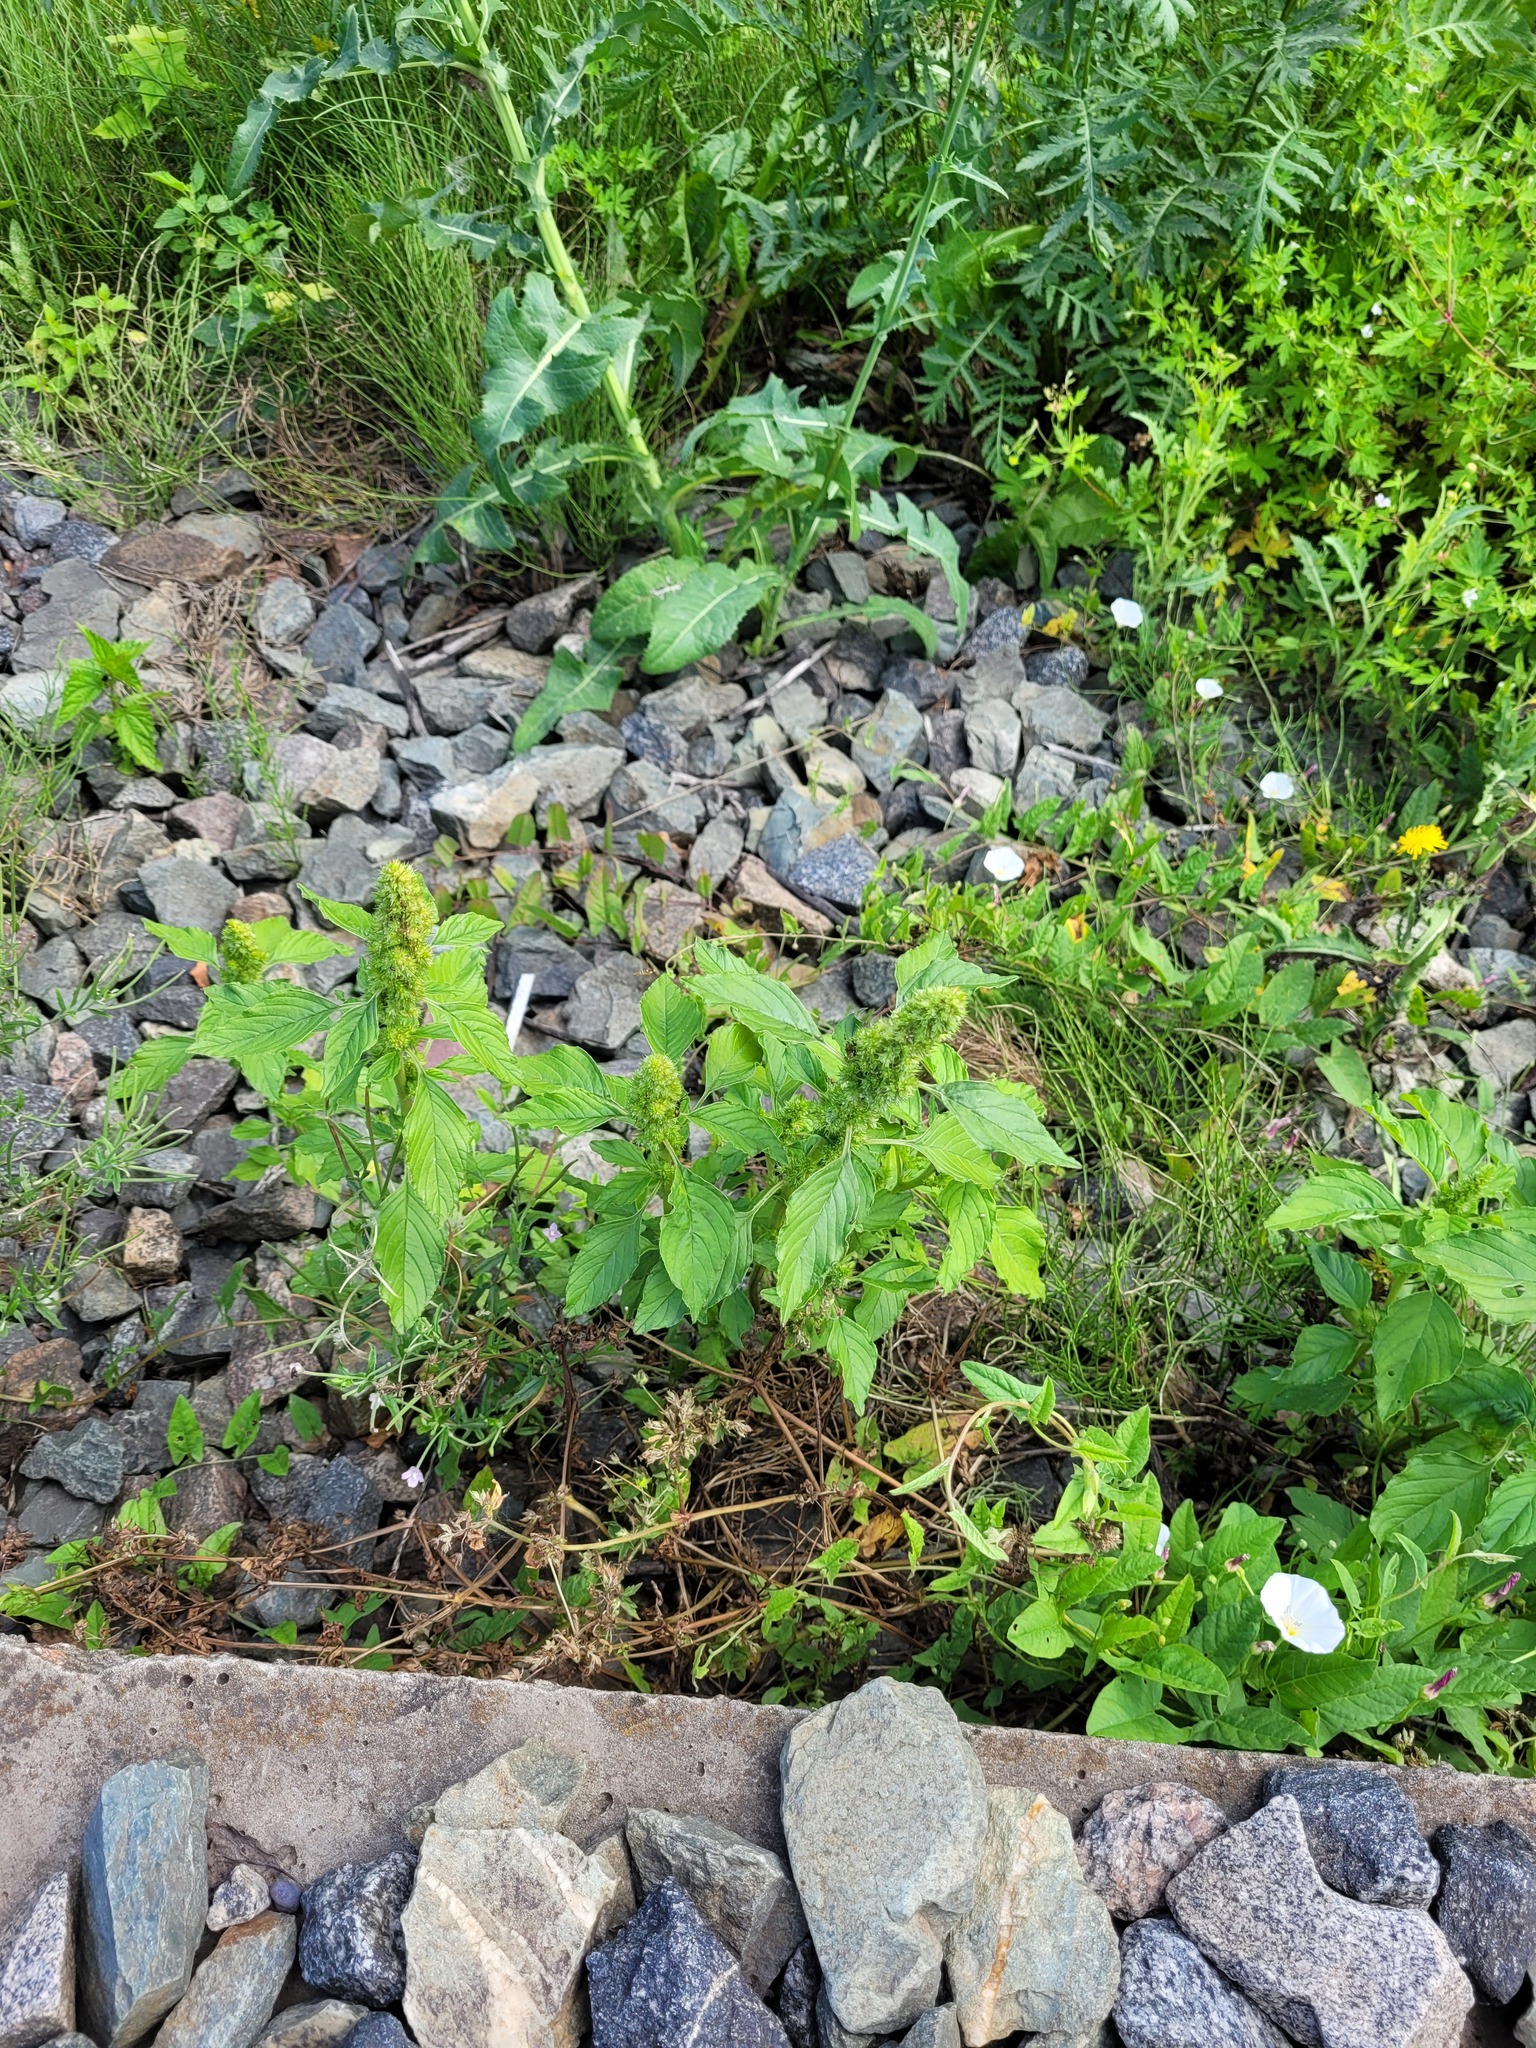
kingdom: Plantae
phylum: Tracheophyta
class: Magnoliopsida
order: Caryophyllales
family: Amaranthaceae
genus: Amaranthus
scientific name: Amaranthus retroflexus
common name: Redroot amaranth
